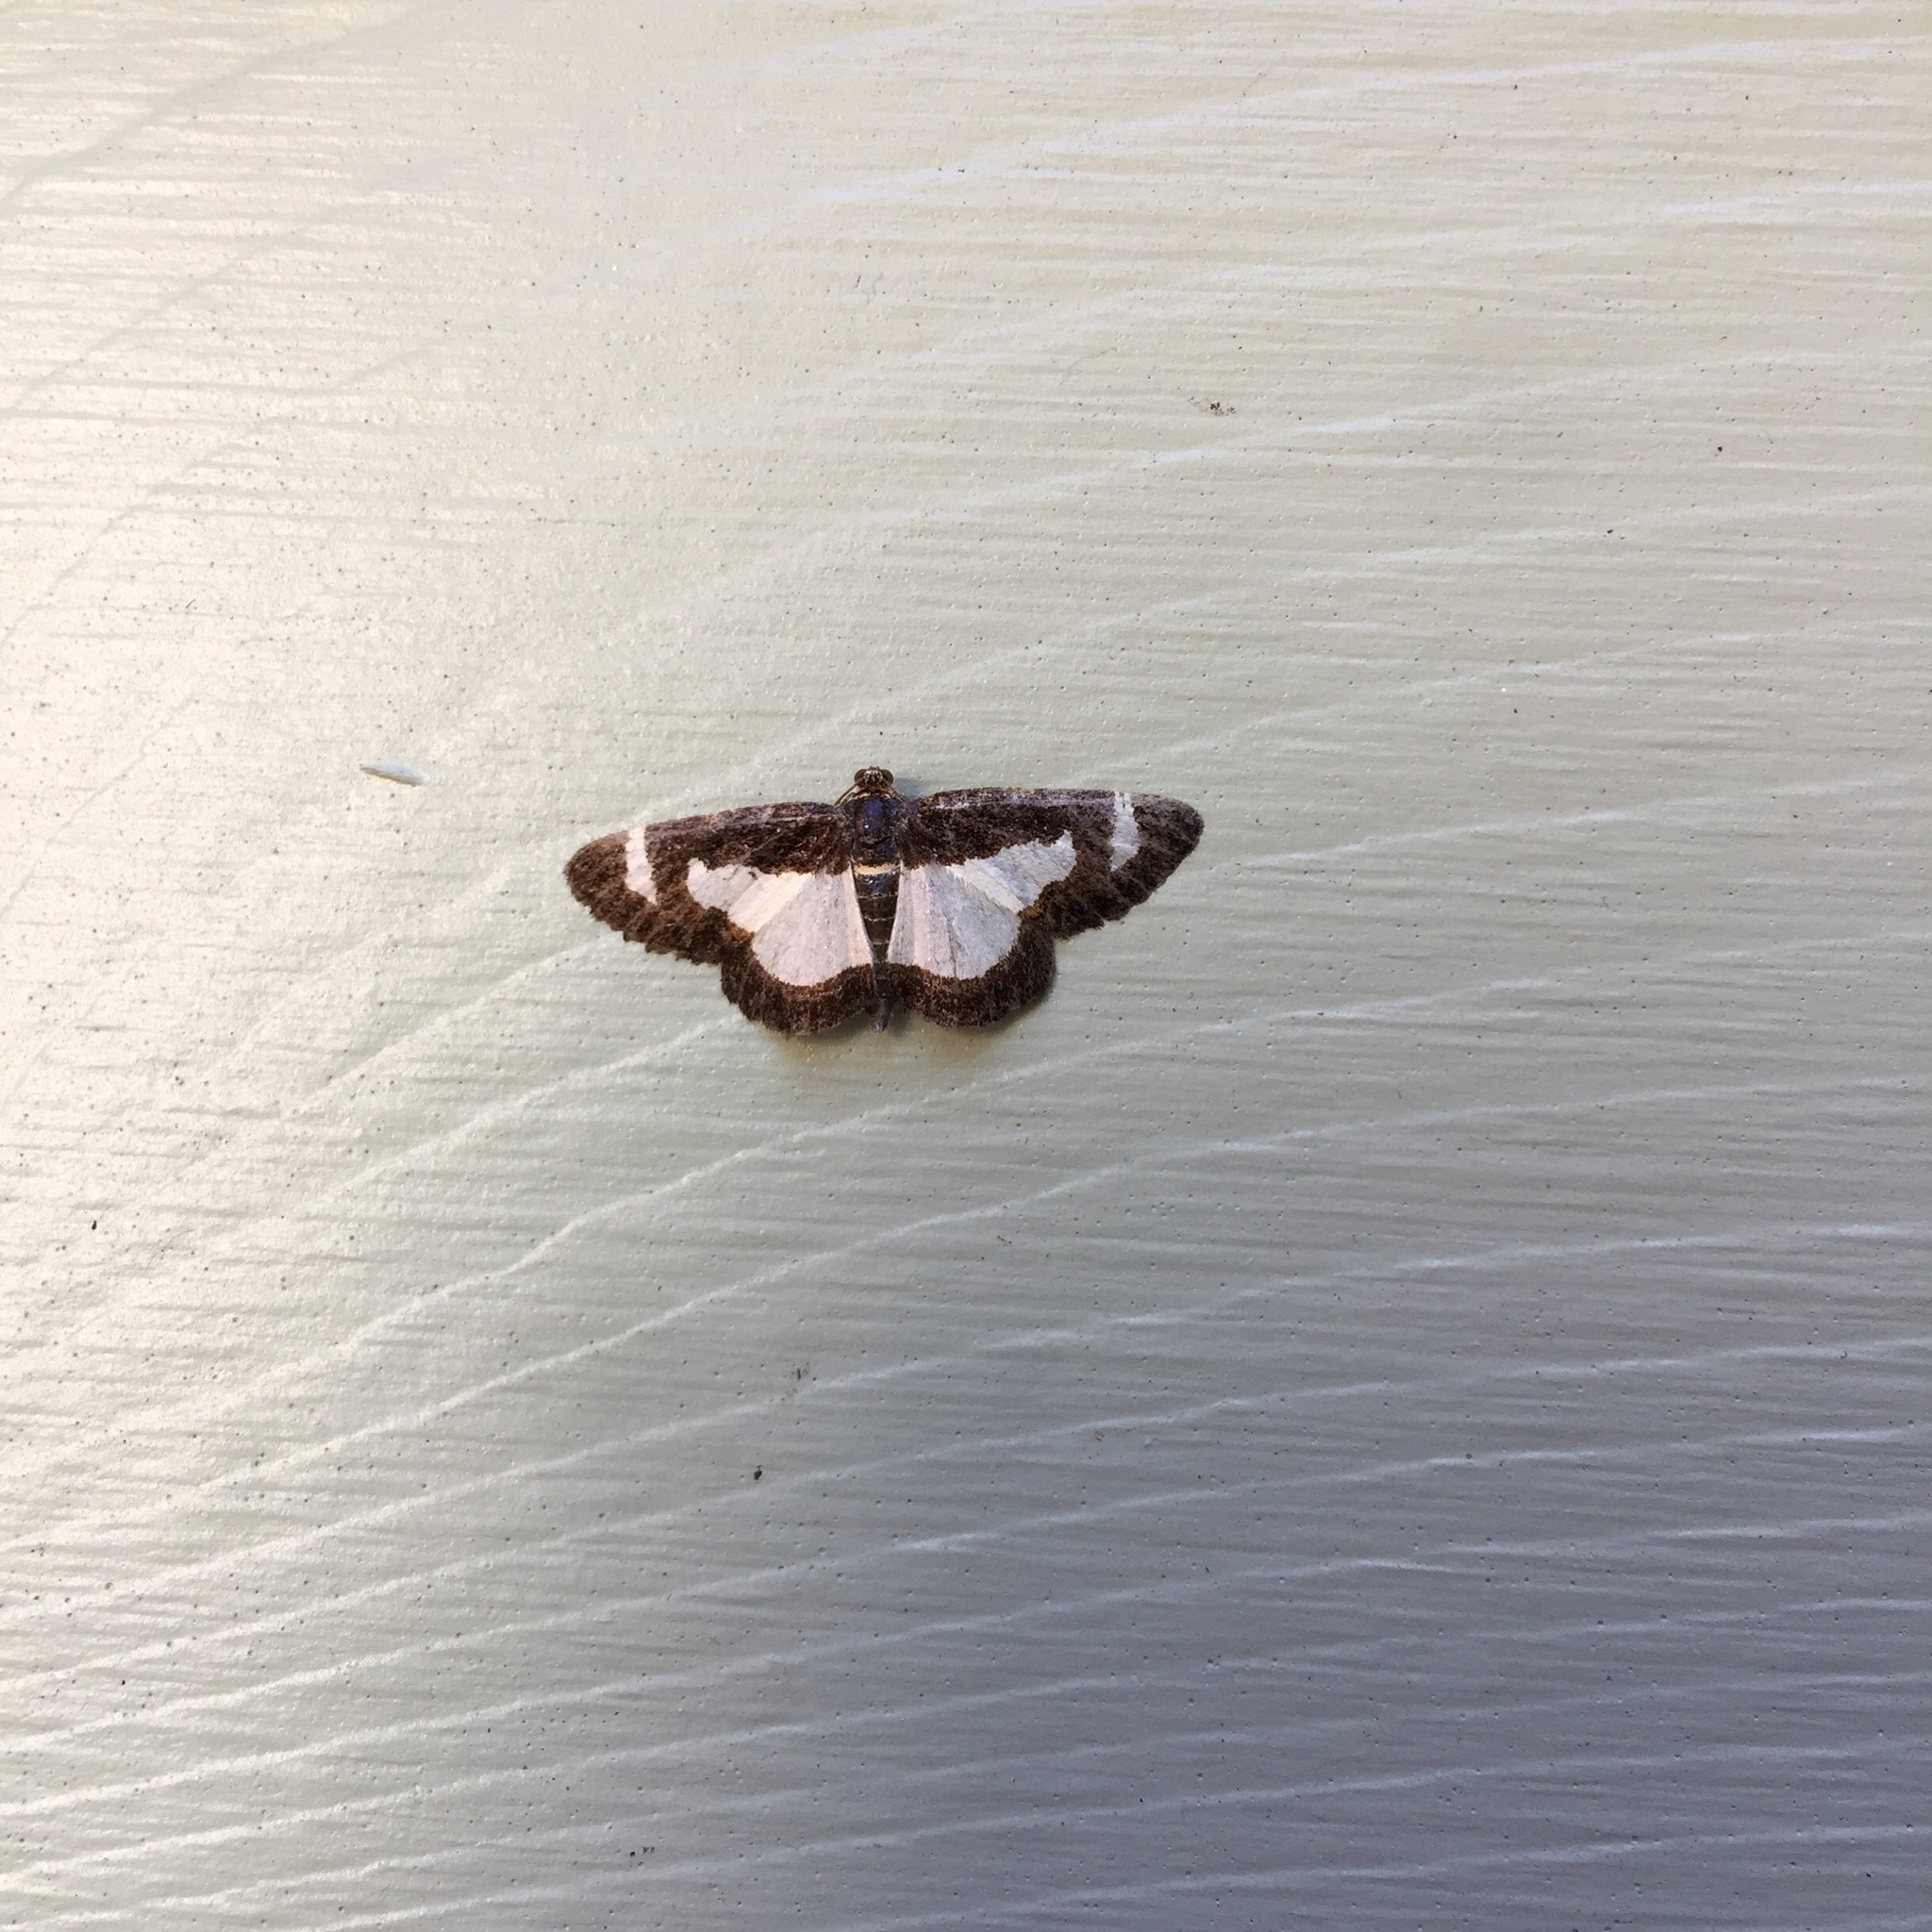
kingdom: Animalia
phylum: Arthropoda
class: Insecta
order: Lepidoptera
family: Geometridae
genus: Heliomata
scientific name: Heliomata cycladata
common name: Common spring moth
